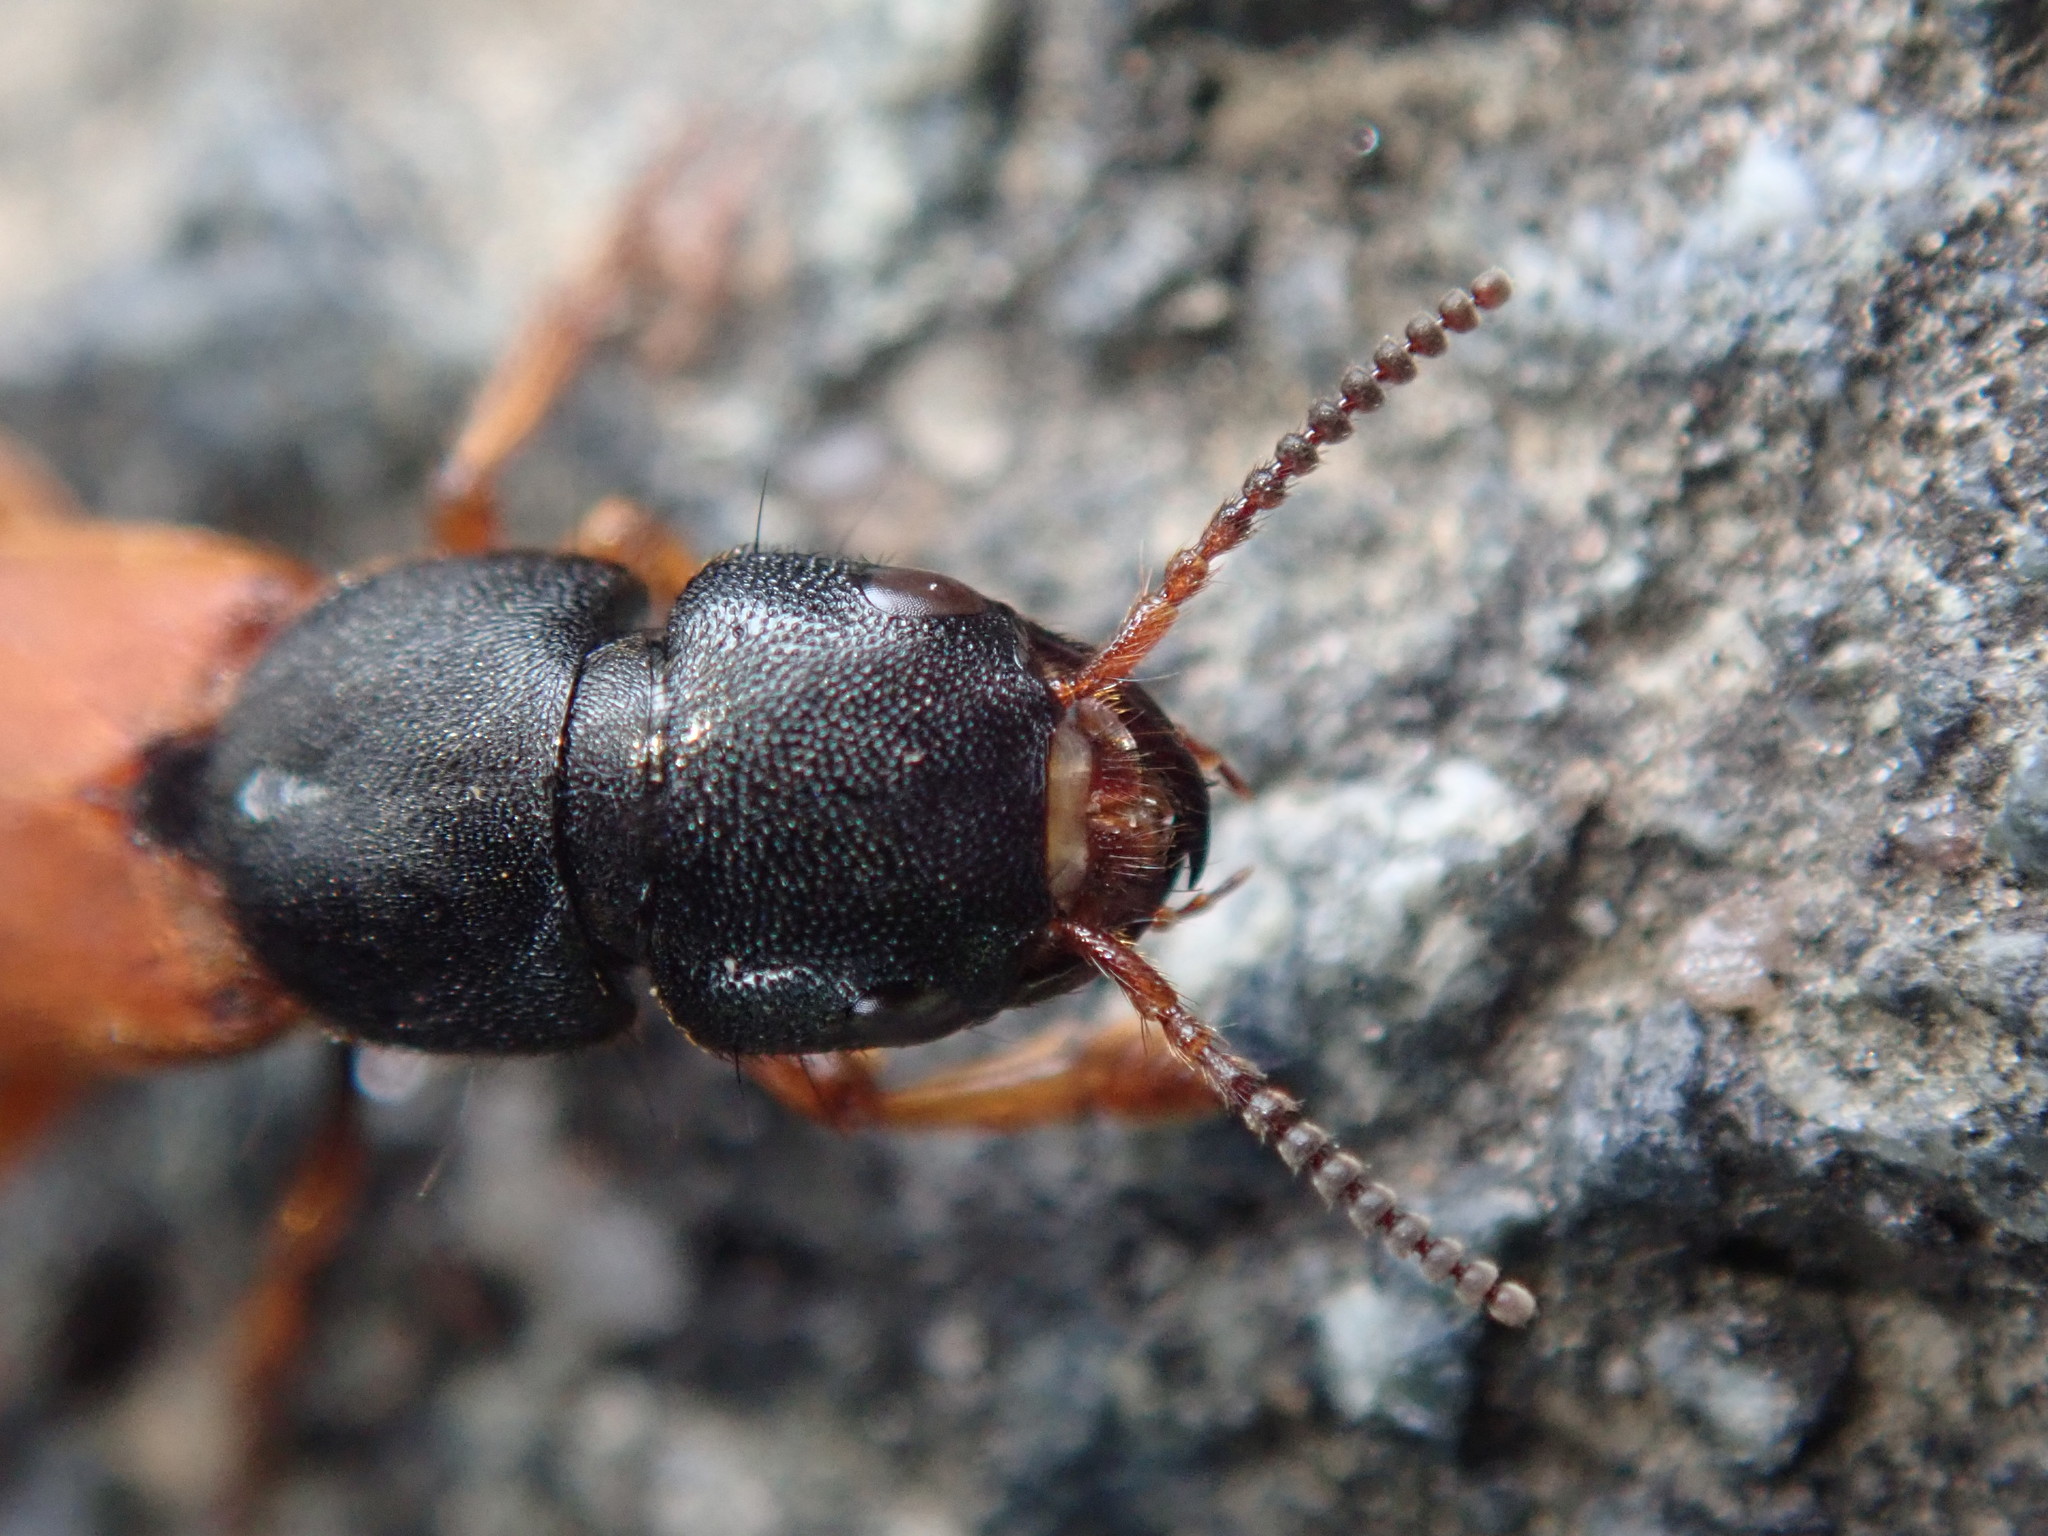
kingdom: Animalia
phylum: Arthropoda
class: Insecta
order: Coleoptera
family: Staphylinidae
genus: Platydracus
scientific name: Platydracus stercorarius
